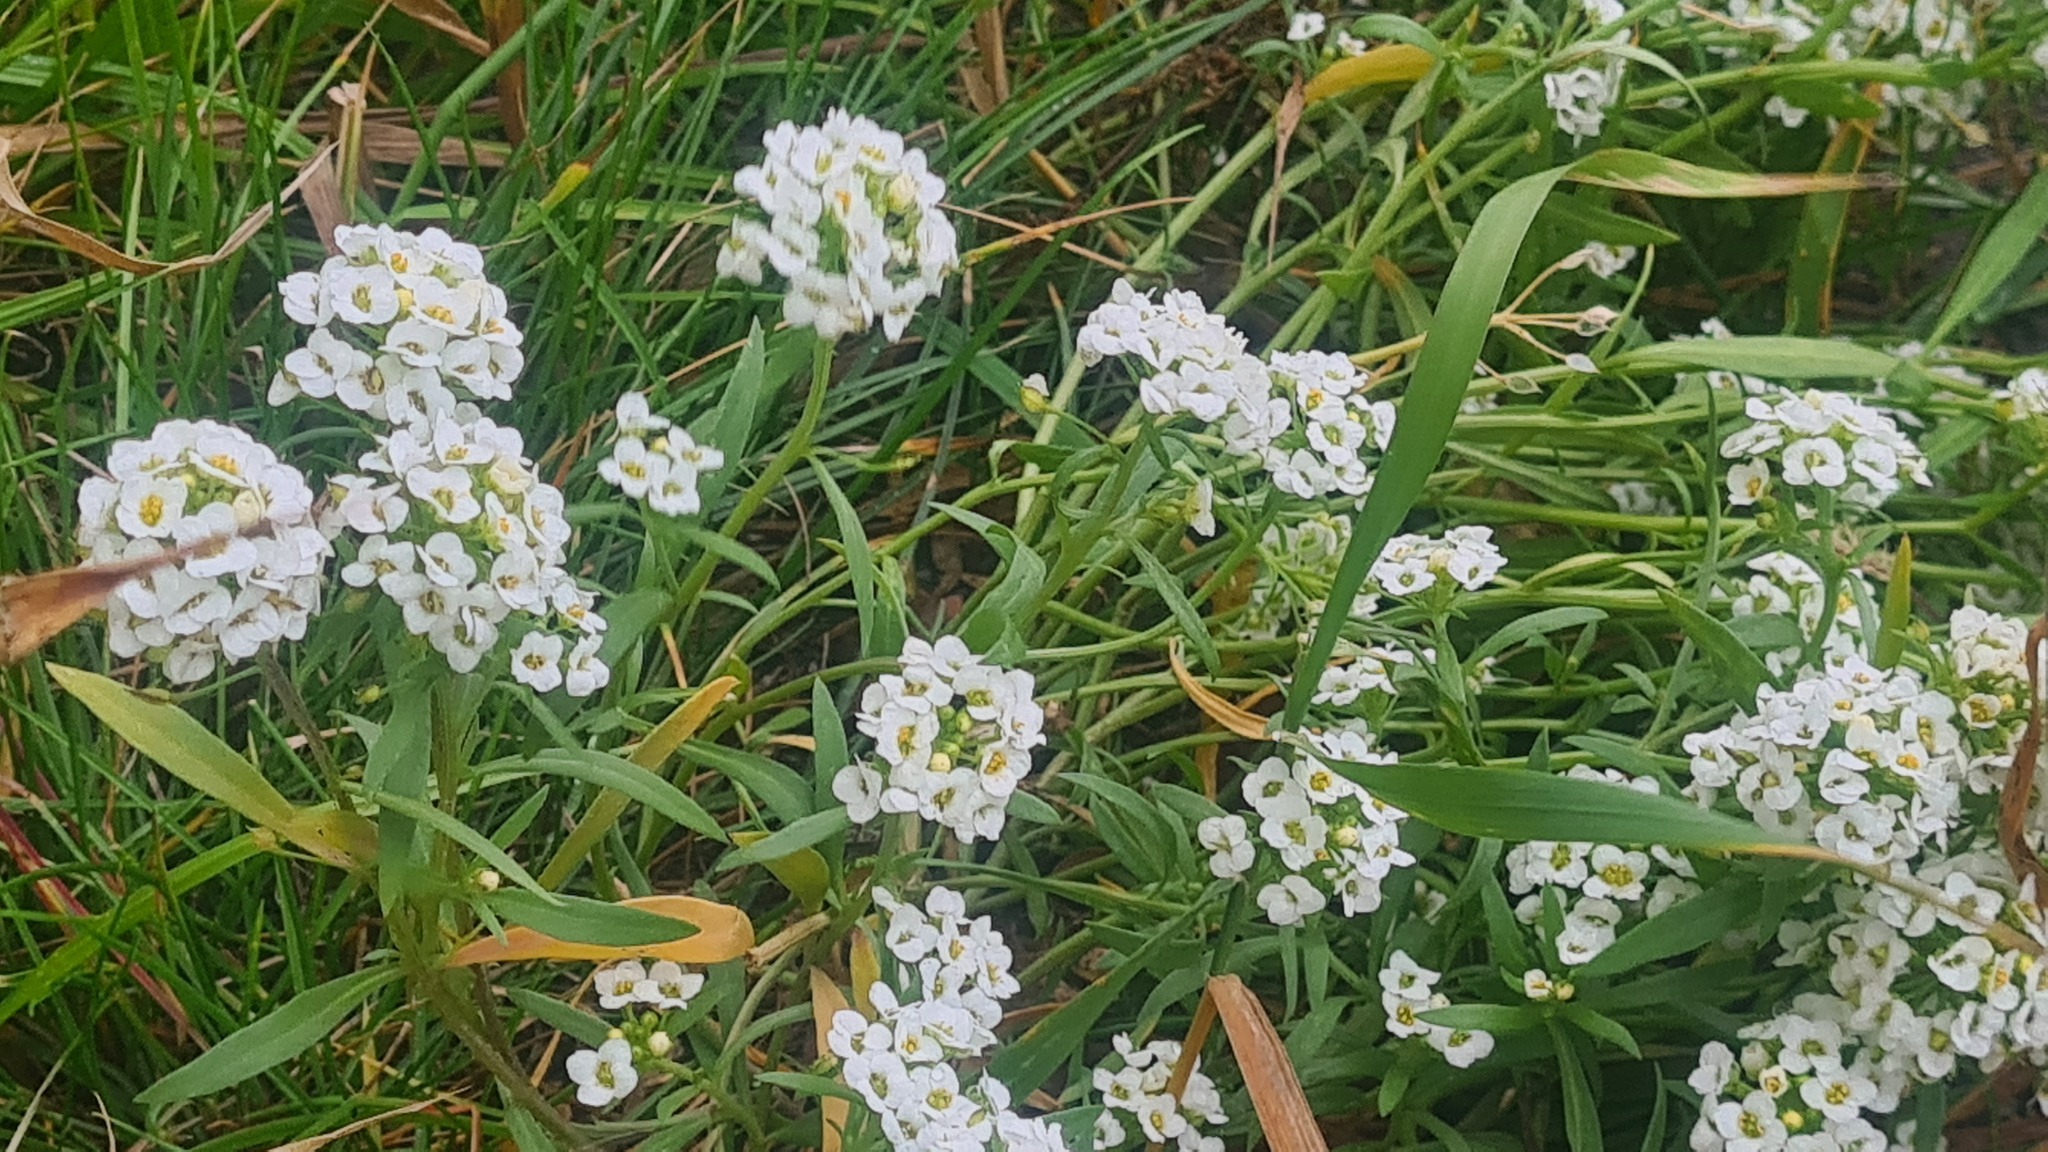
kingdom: Plantae
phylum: Tracheophyta
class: Magnoliopsida
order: Brassicales
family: Brassicaceae
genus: Lobularia
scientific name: Lobularia maritima
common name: Sweet alison
